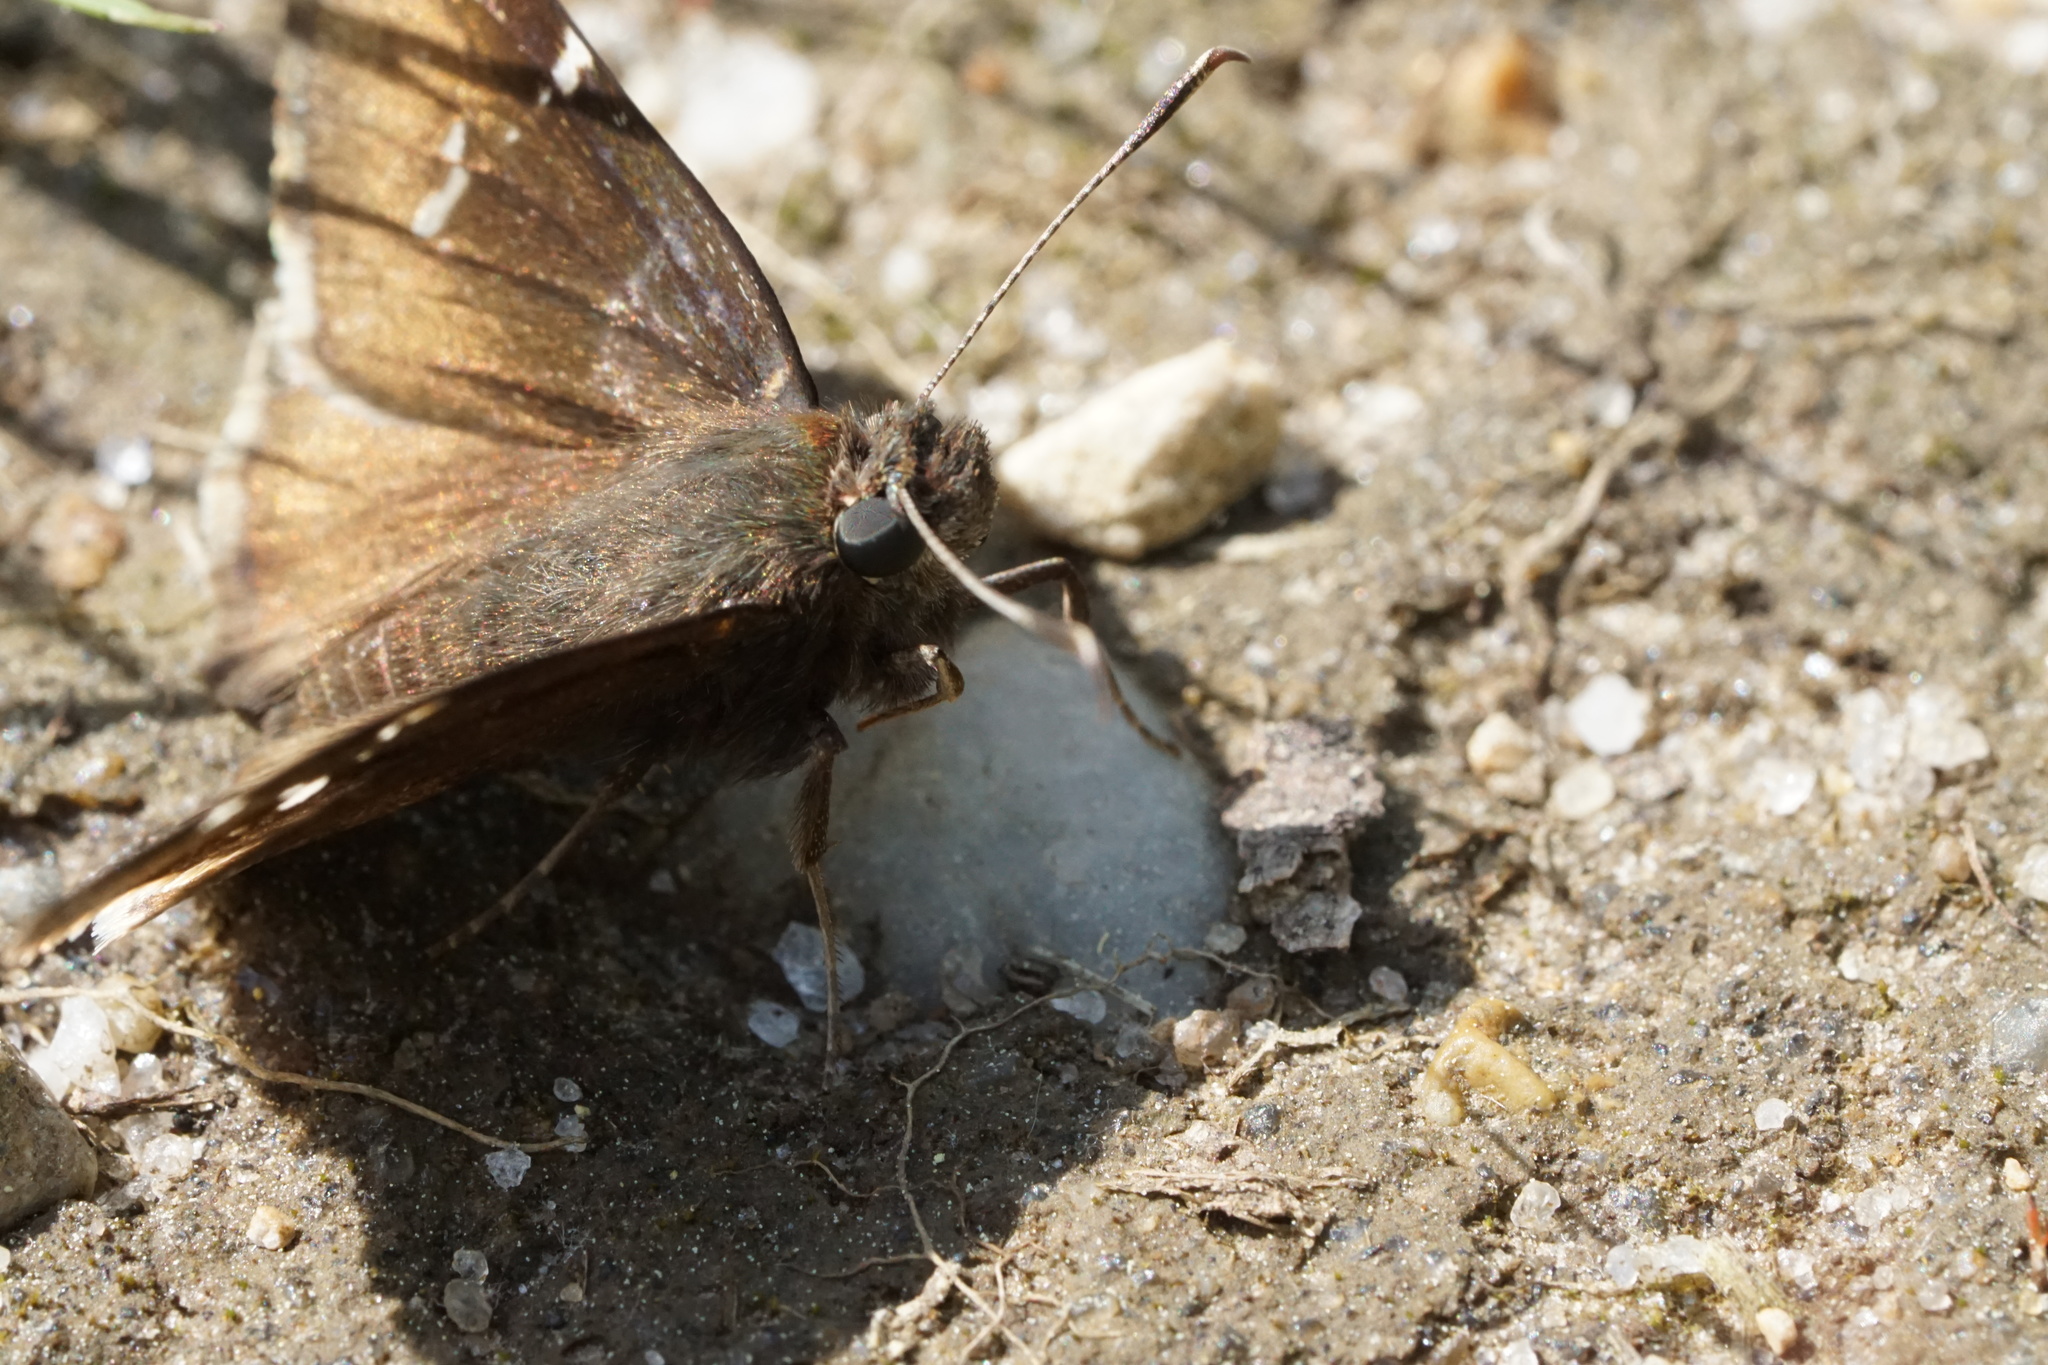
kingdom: Animalia
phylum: Arthropoda
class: Insecta
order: Lepidoptera
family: Hesperiidae
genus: Thorybes
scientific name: Thorybes daunus
